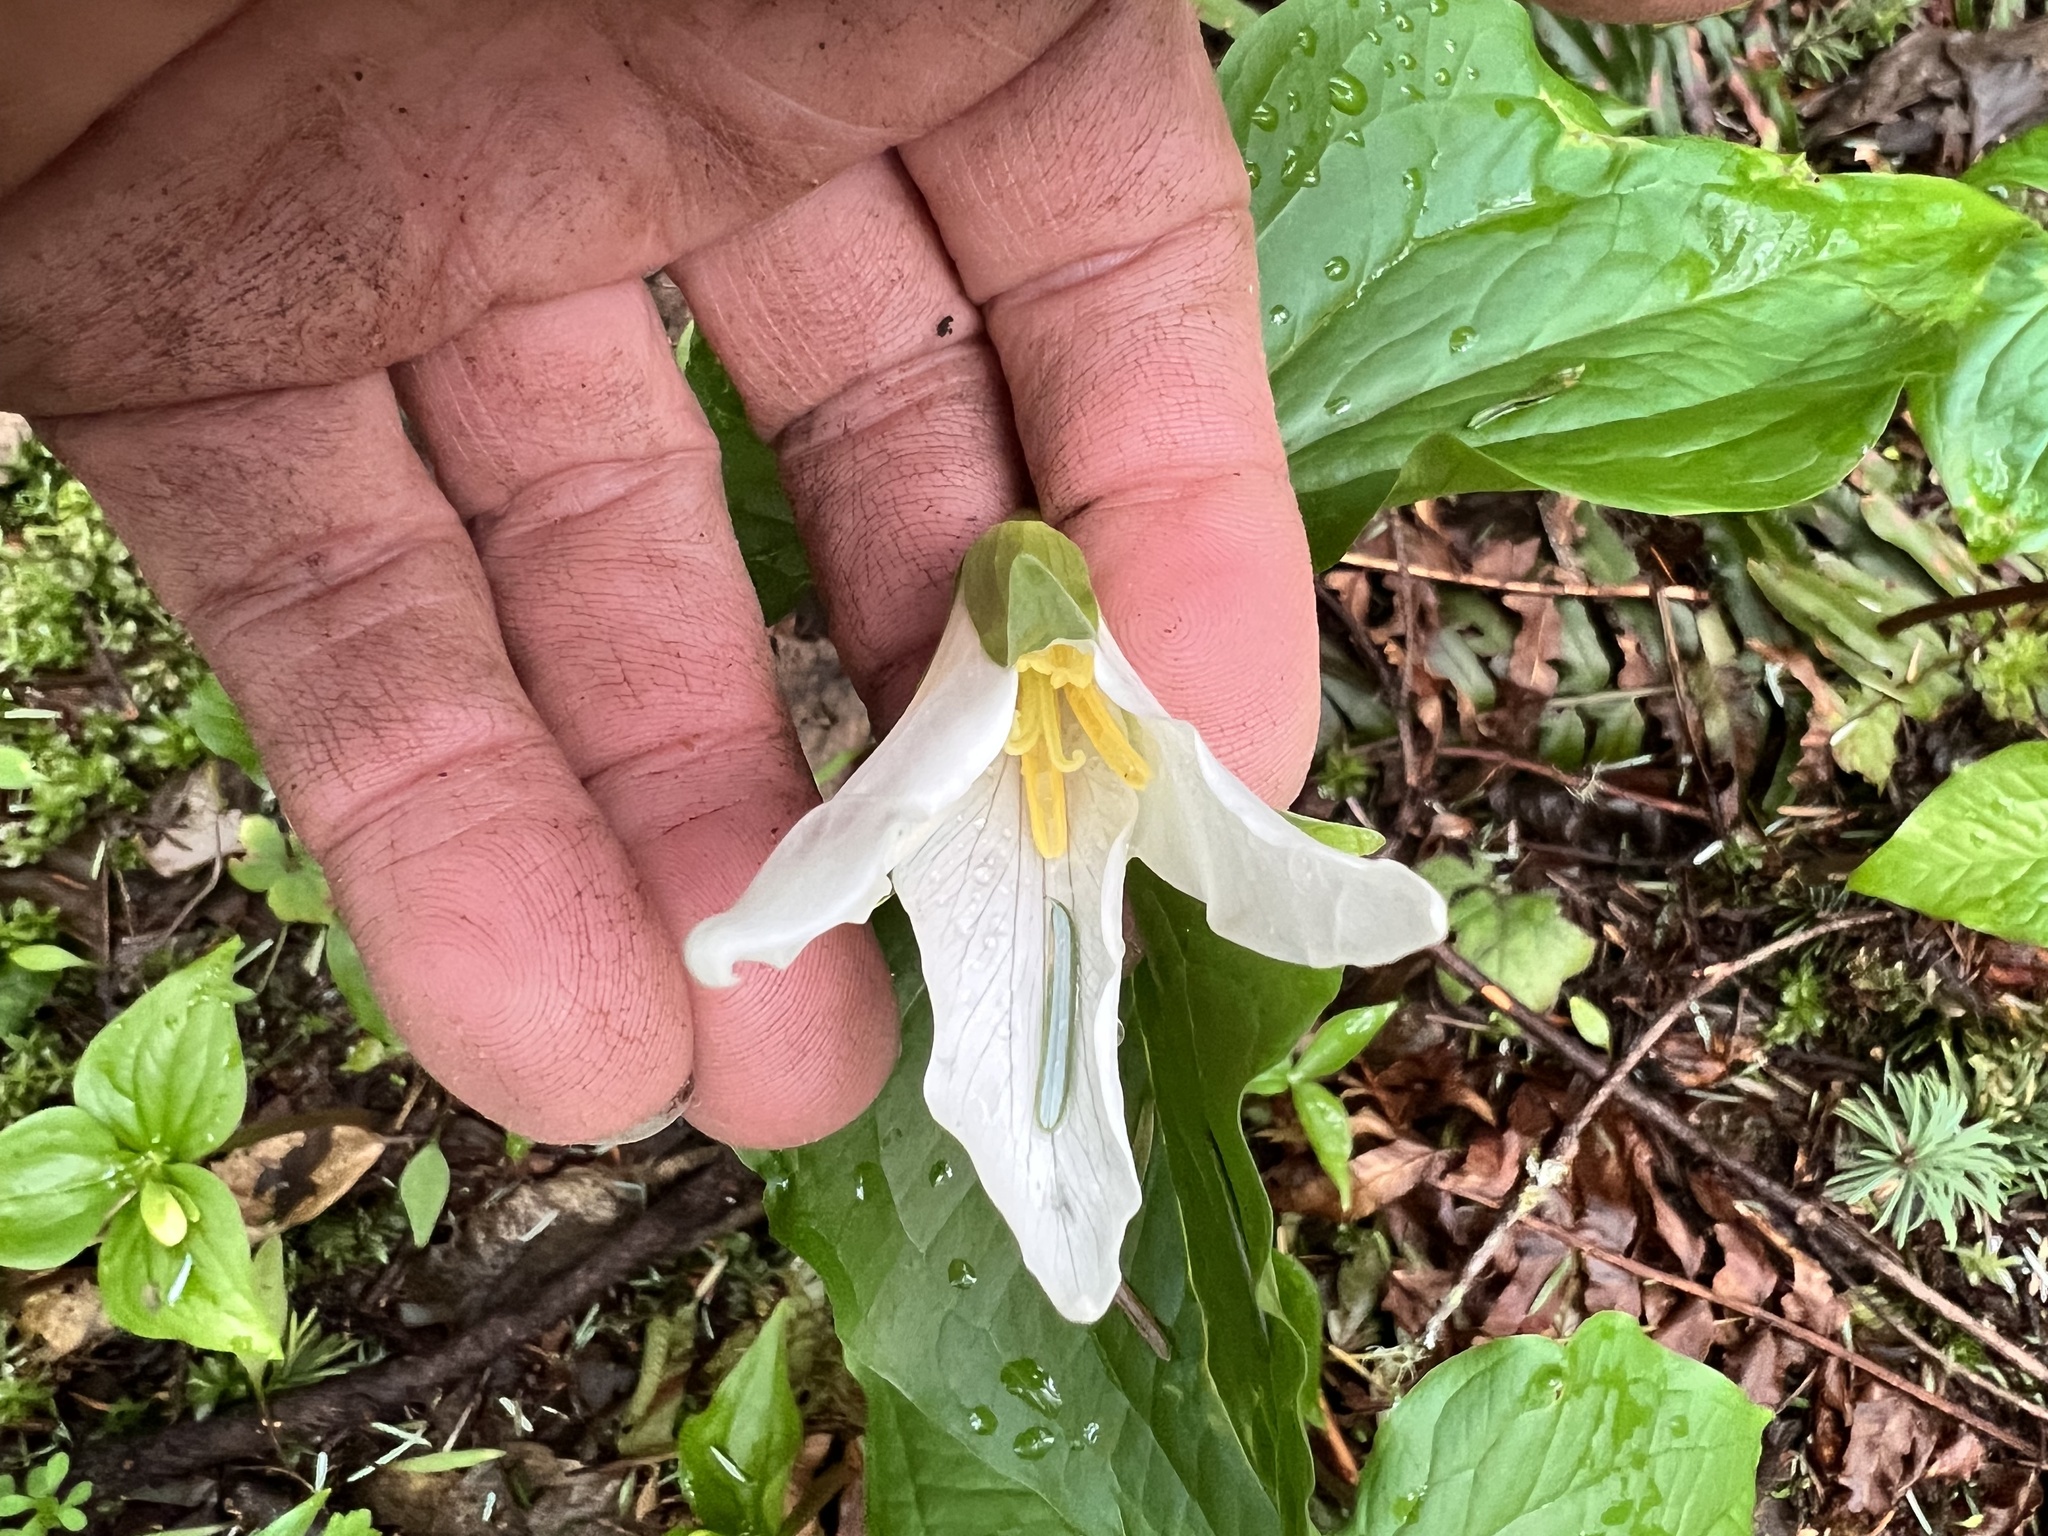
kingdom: Plantae
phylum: Tracheophyta
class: Liliopsida
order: Liliales
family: Melanthiaceae
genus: Trillium
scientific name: Trillium ovatum
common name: Pacific trillium
